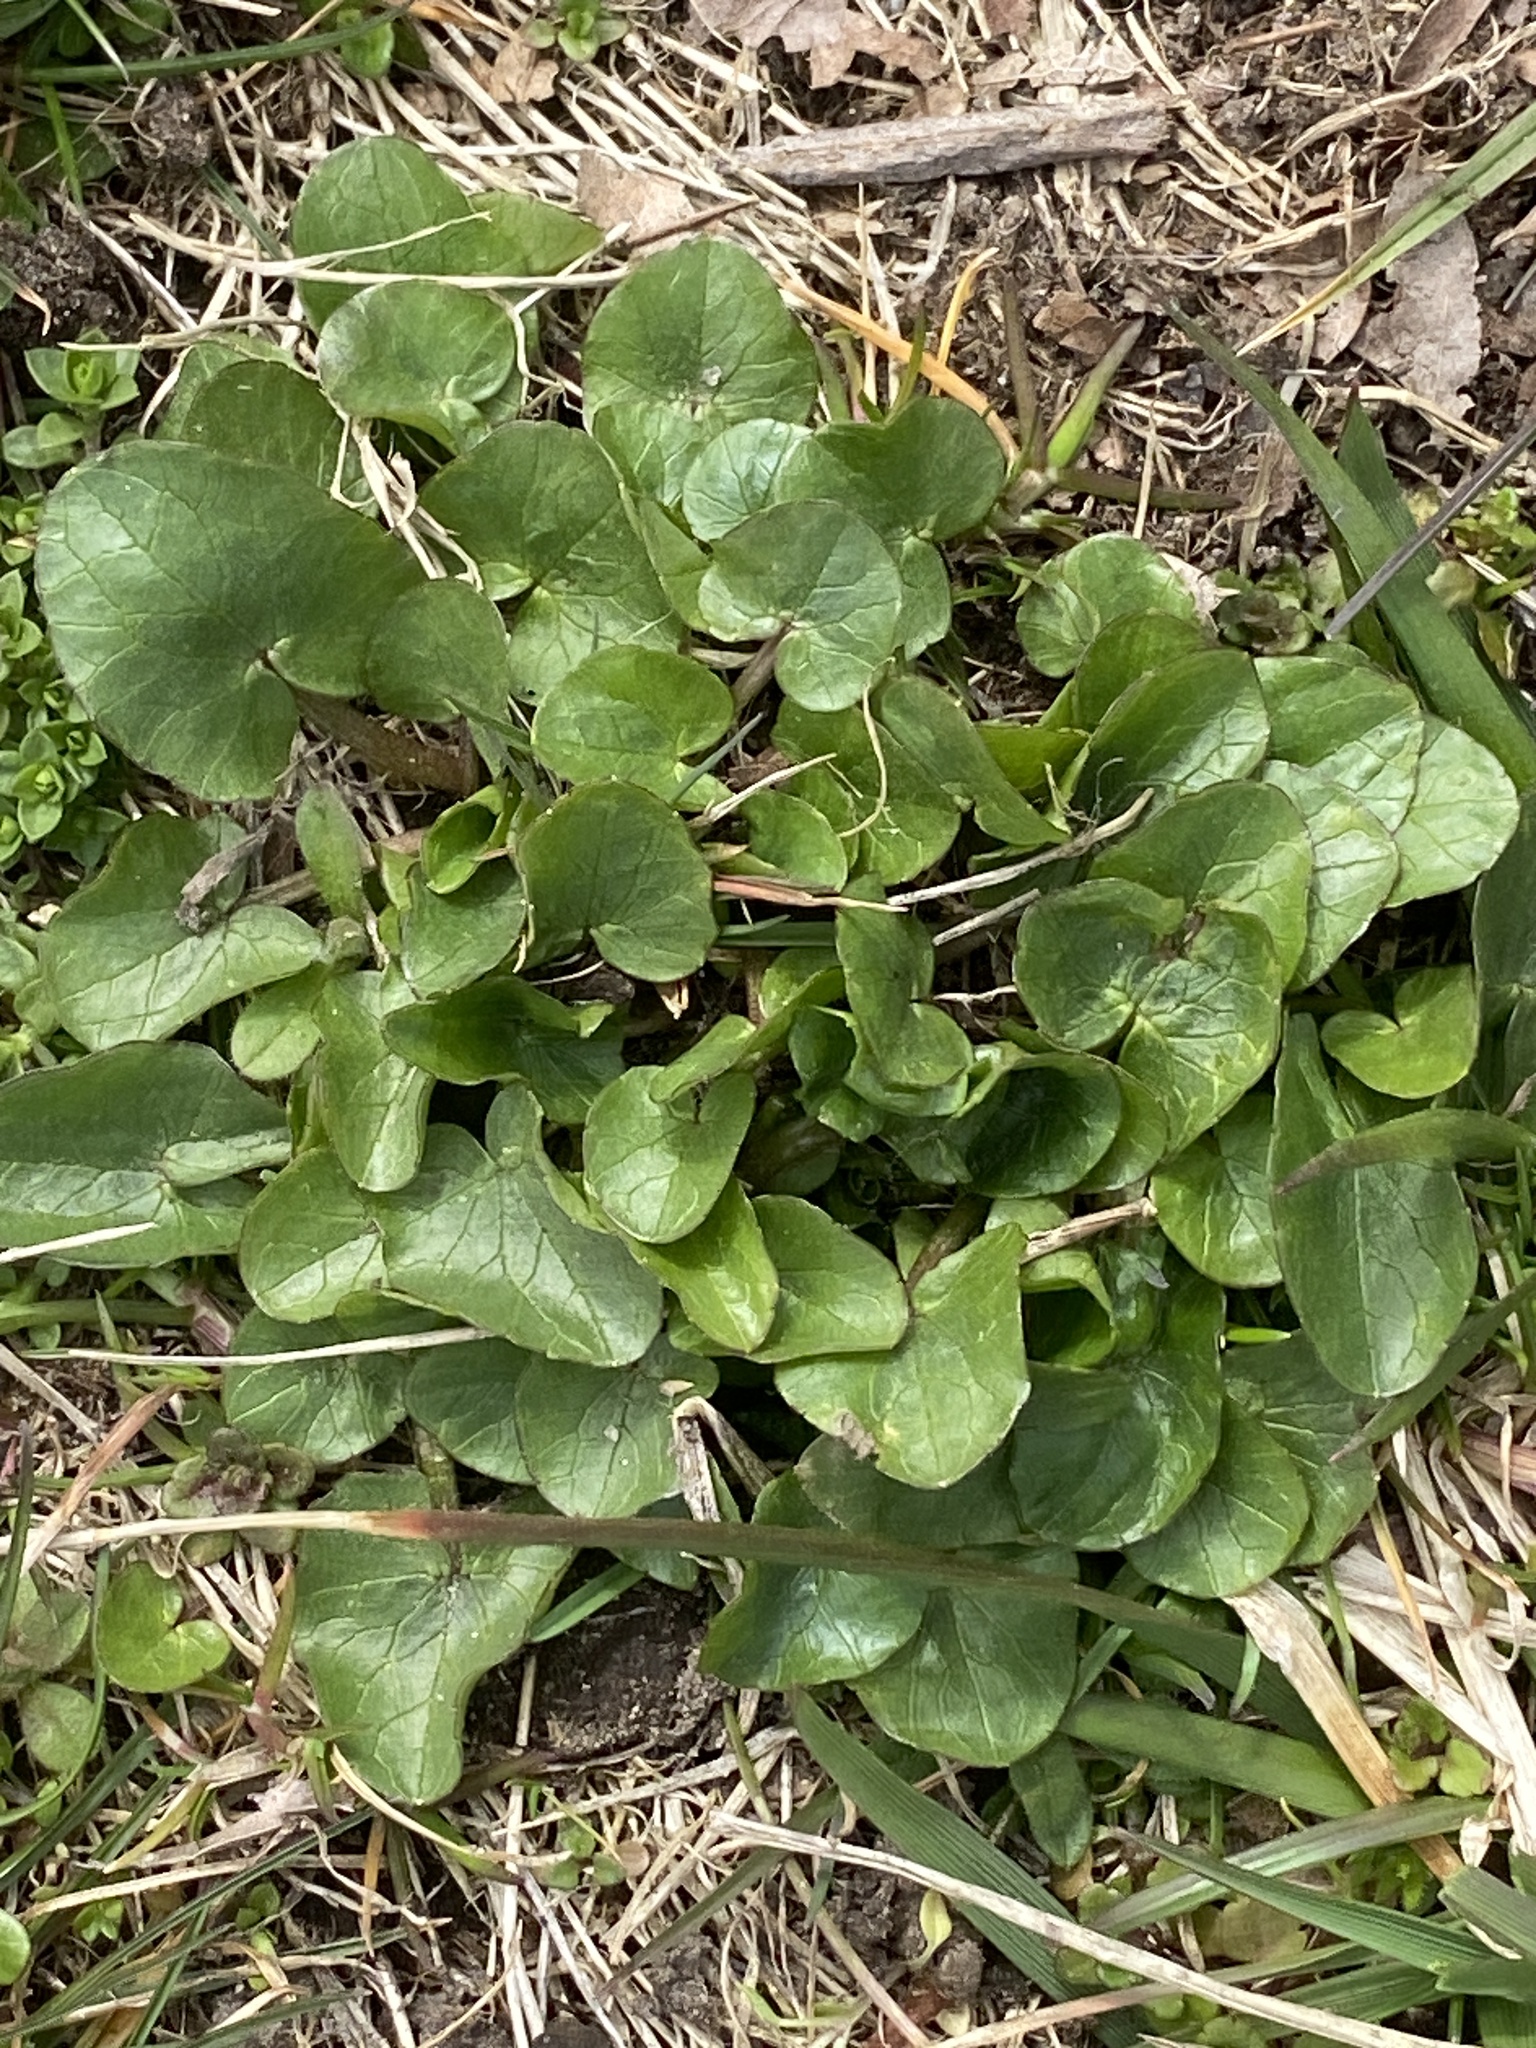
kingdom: Plantae
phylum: Tracheophyta
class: Magnoliopsida
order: Ranunculales
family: Ranunculaceae
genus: Ficaria
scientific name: Ficaria verna
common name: Lesser celandine
